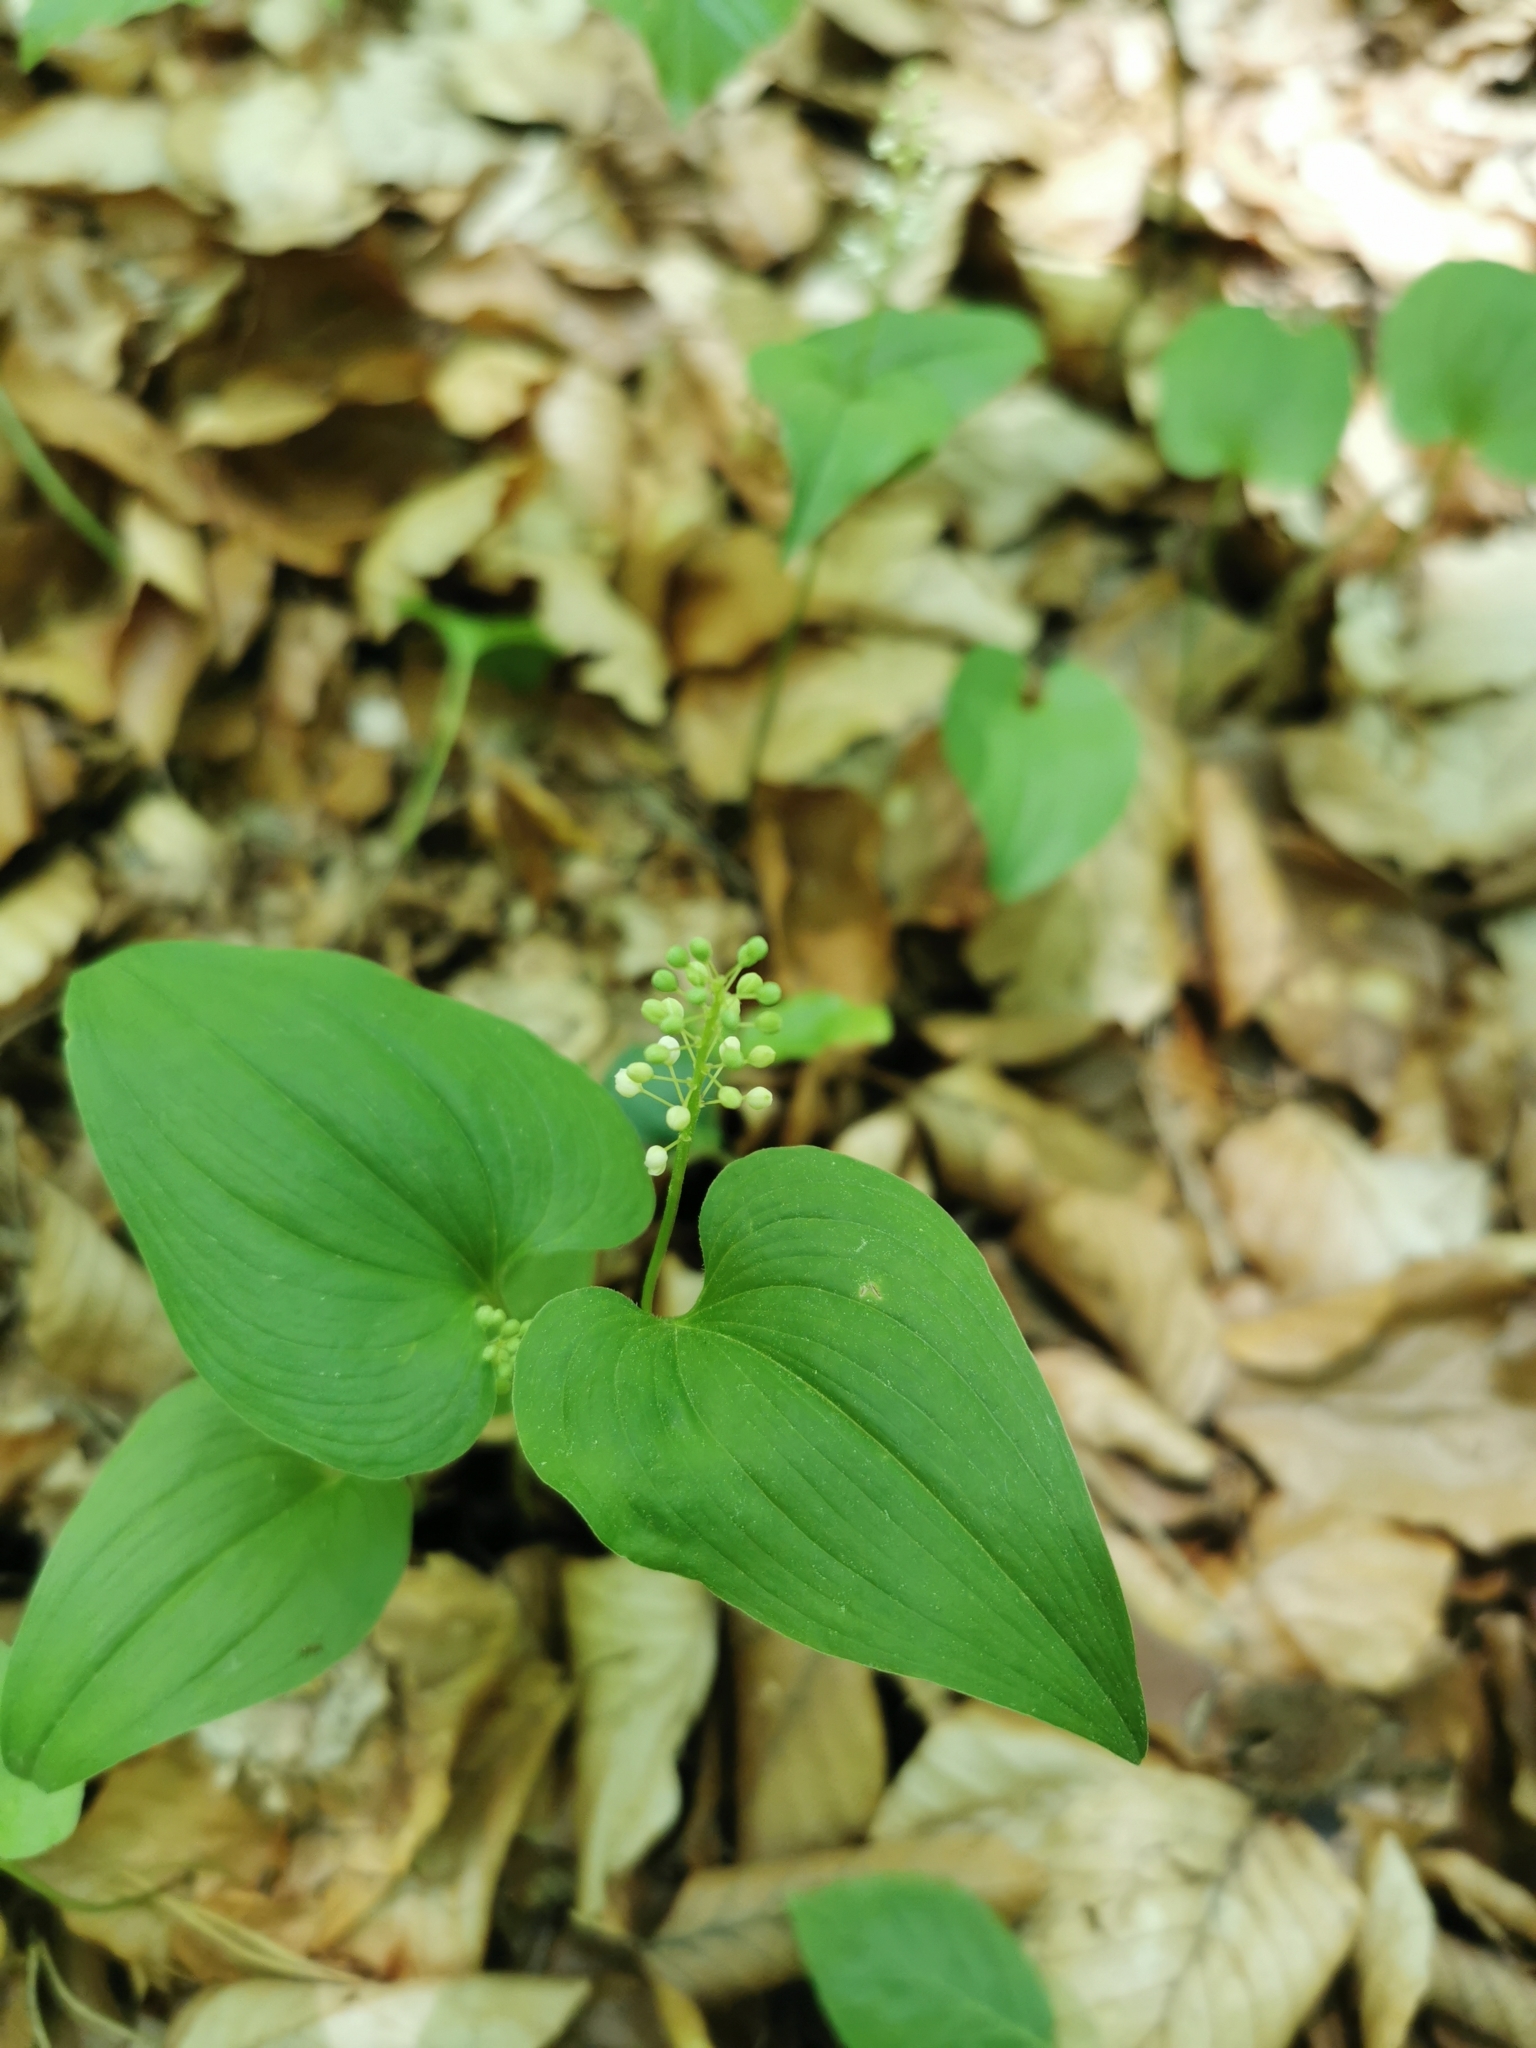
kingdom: Plantae
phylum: Tracheophyta
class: Liliopsida
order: Asparagales
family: Asparagaceae
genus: Maianthemum
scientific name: Maianthemum bifolium
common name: May lily
